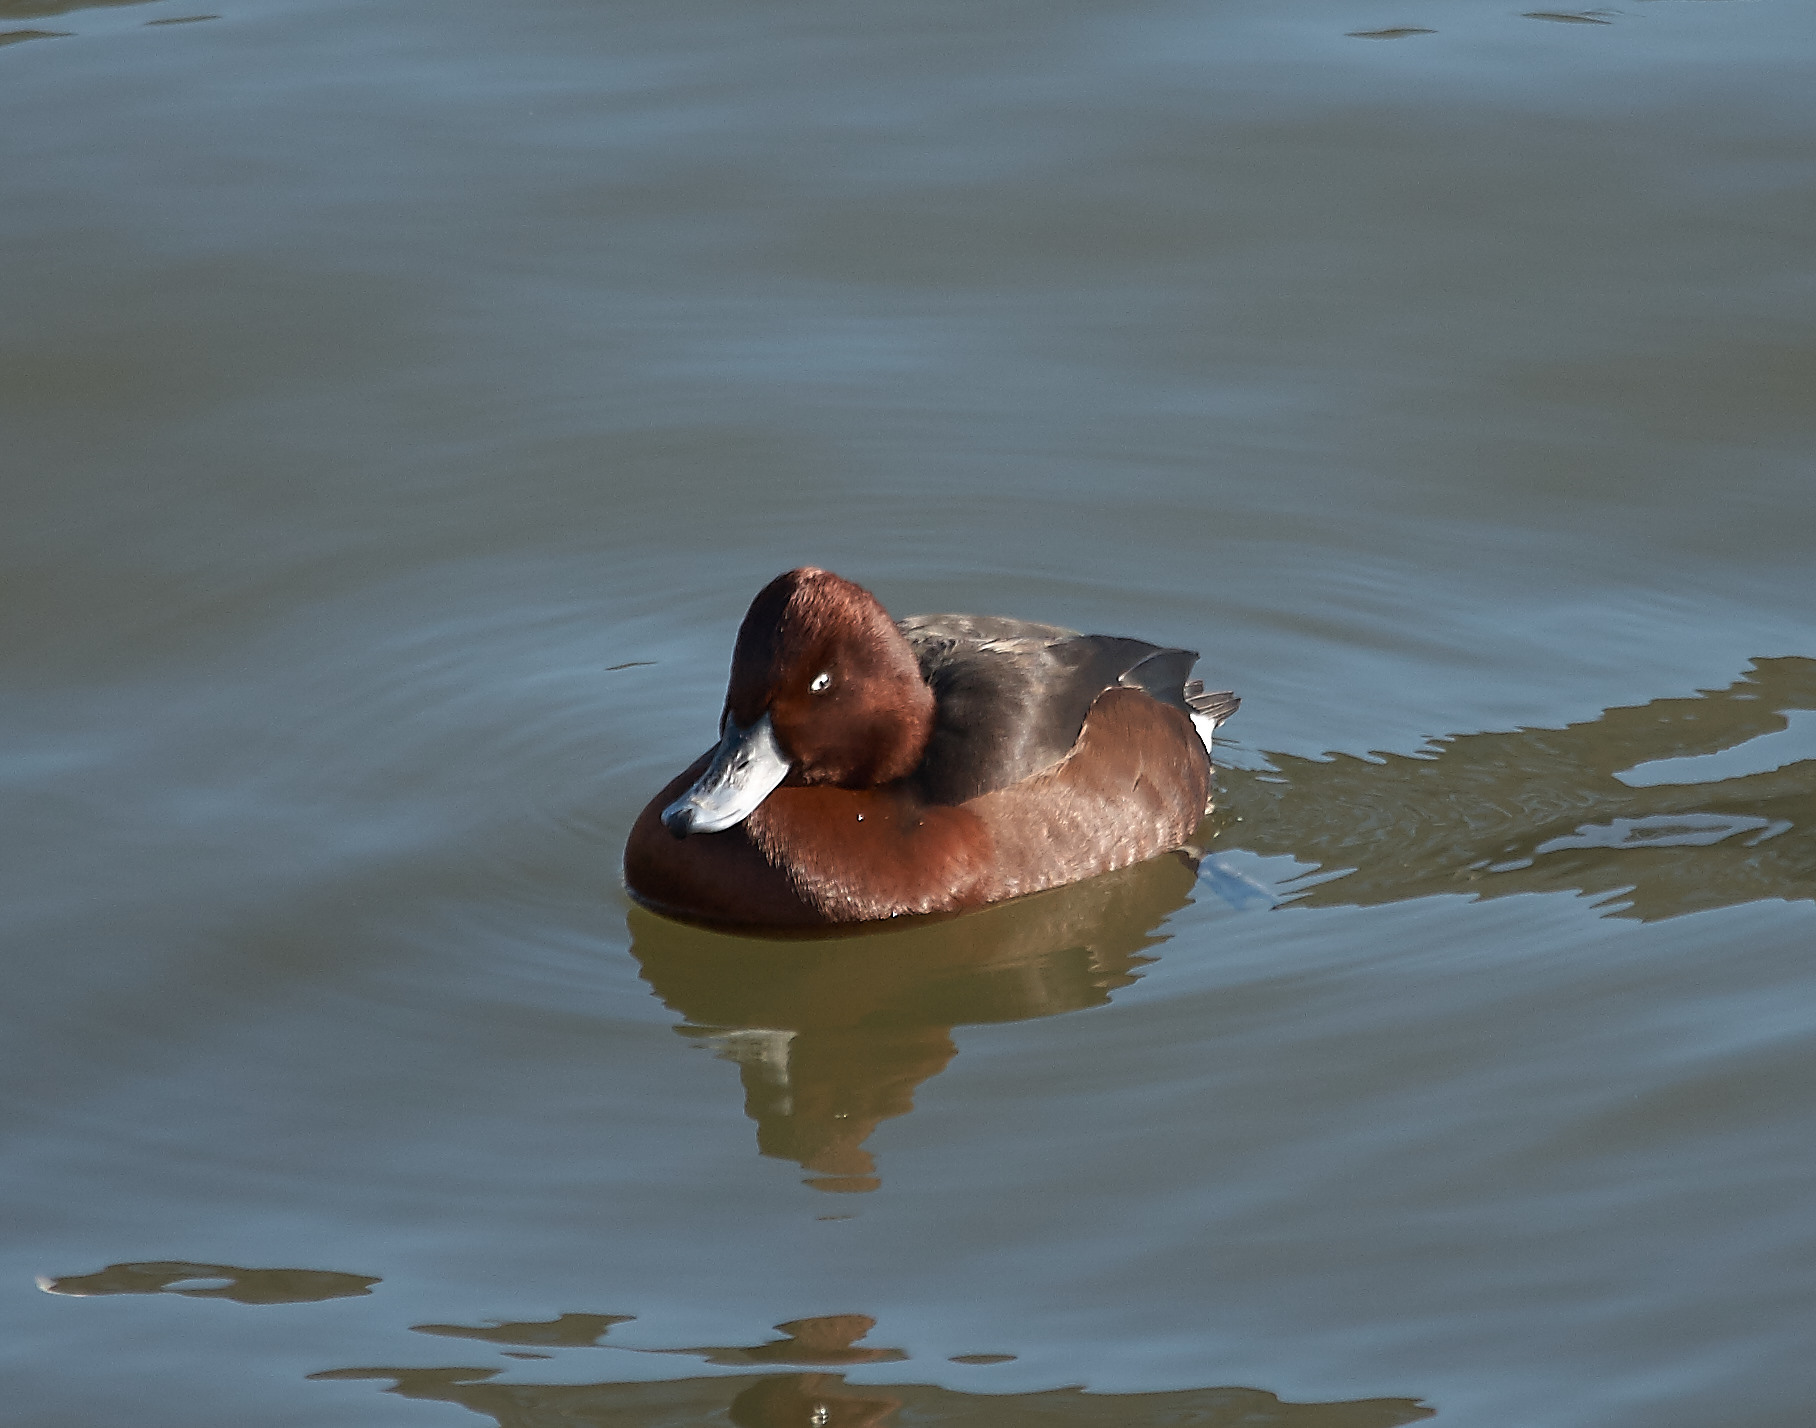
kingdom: Animalia
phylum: Chordata
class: Aves
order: Anseriformes
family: Anatidae
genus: Aythya
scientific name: Aythya nyroca
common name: Ferruginous duck
